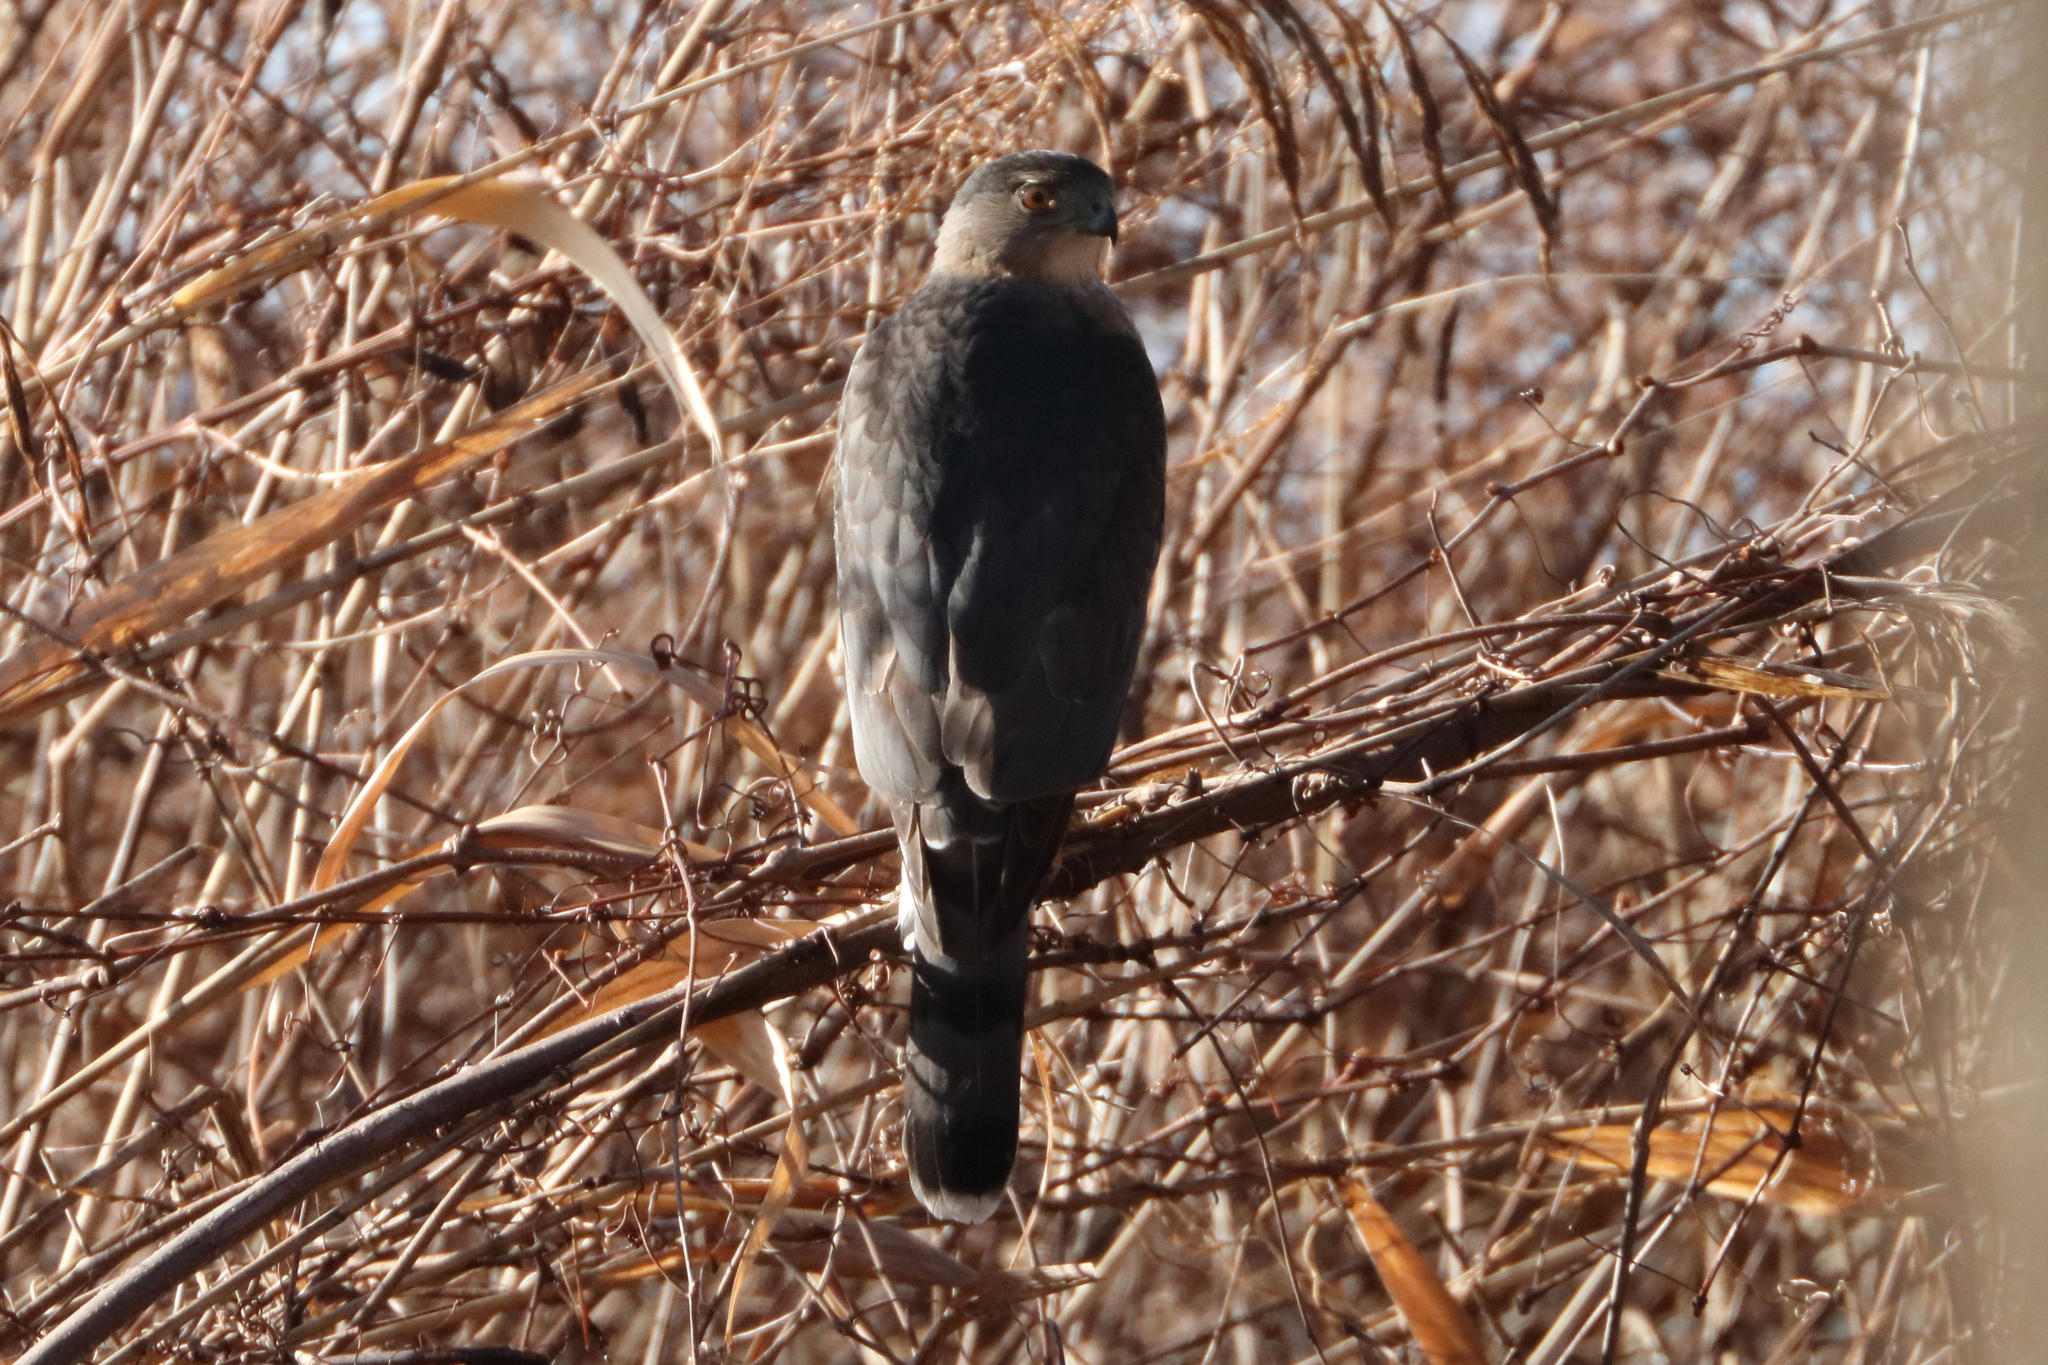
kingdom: Animalia
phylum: Chordata
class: Aves
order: Accipitriformes
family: Accipitridae
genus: Accipiter
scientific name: Accipiter cooperii
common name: Cooper's hawk
